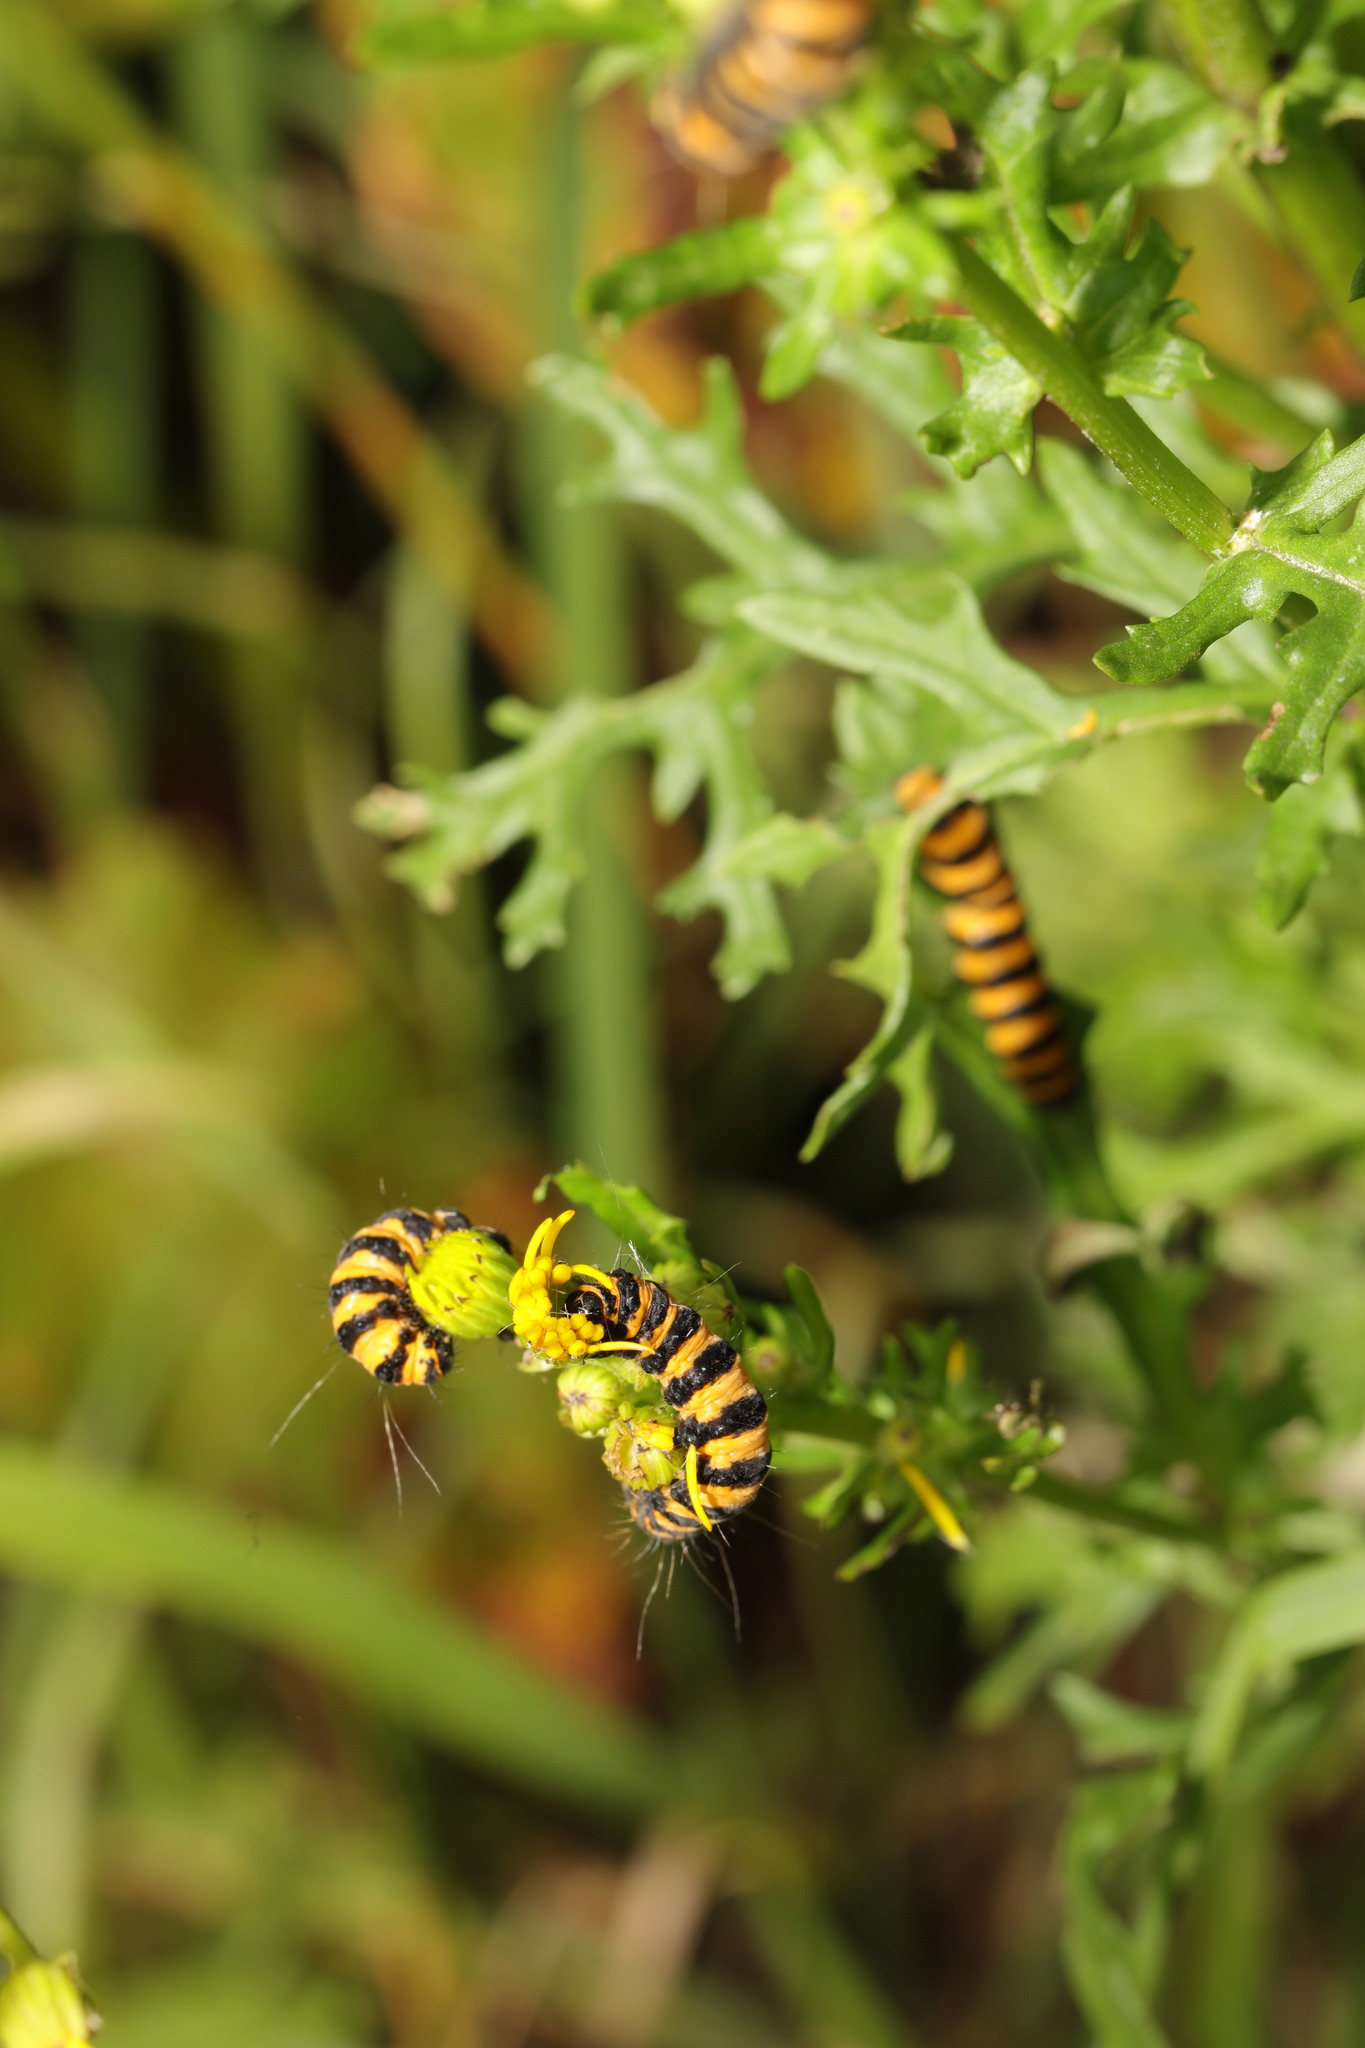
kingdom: Animalia
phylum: Arthropoda
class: Insecta
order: Lepidoptera
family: Erebidae
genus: Tyria
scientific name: Tyria jacobaeae
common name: Cinnabar
